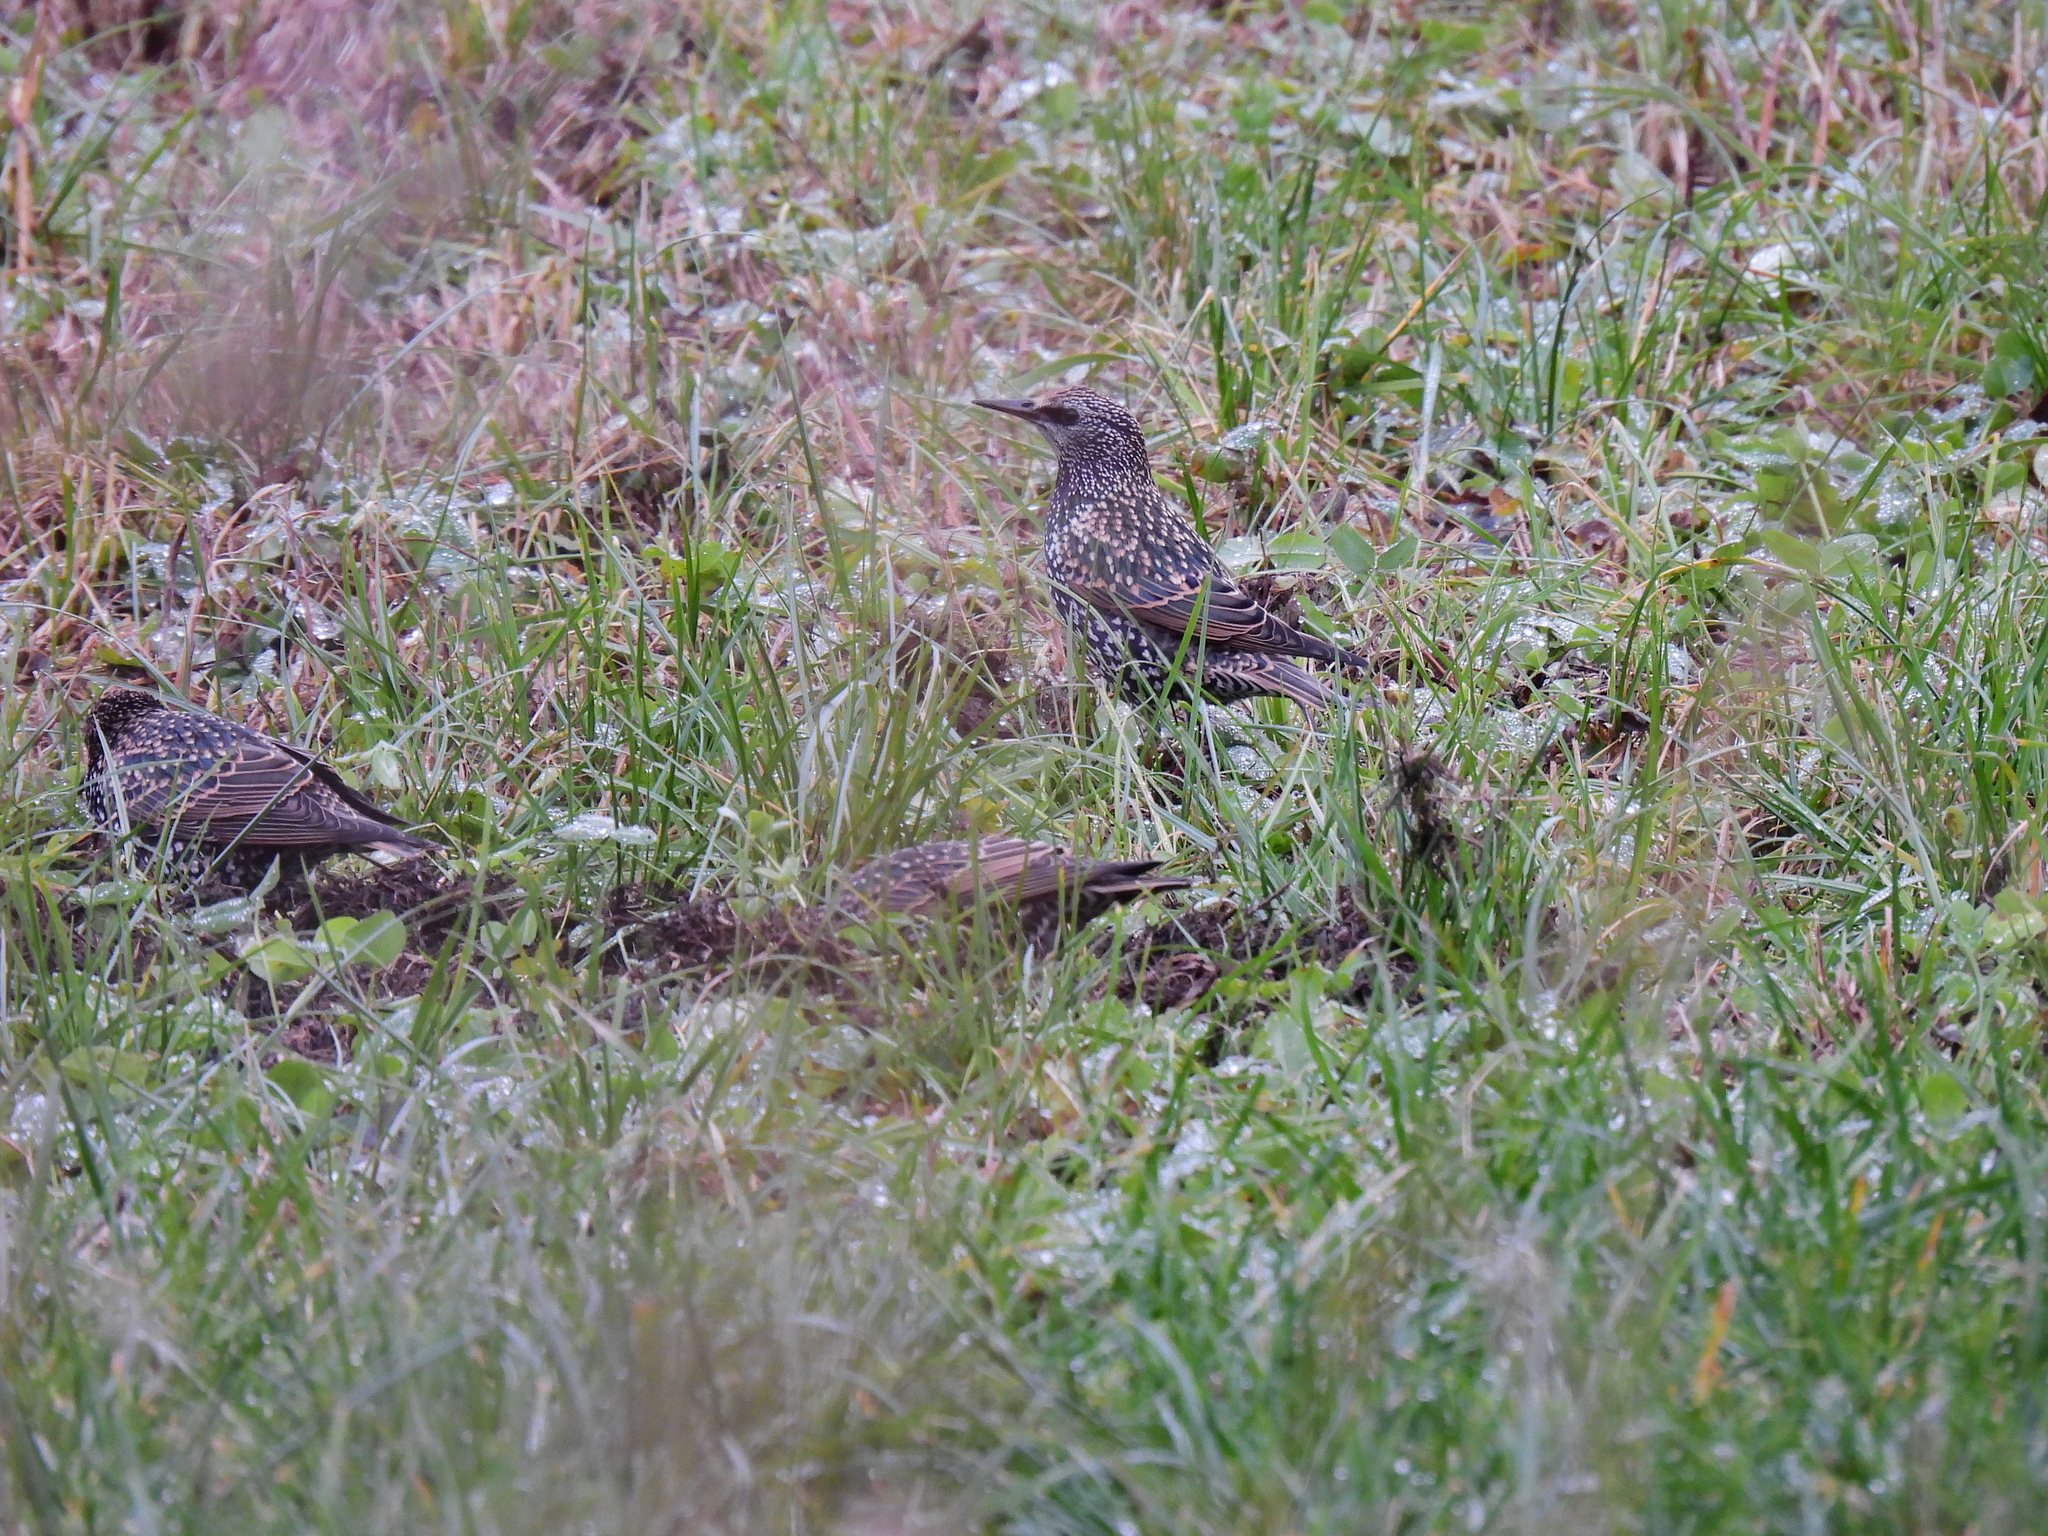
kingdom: Animalia
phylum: Chordata
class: Aves
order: Passeriformes
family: Sturnidae
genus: Sturnus
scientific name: Sturnus vulgaris
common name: Common starling
